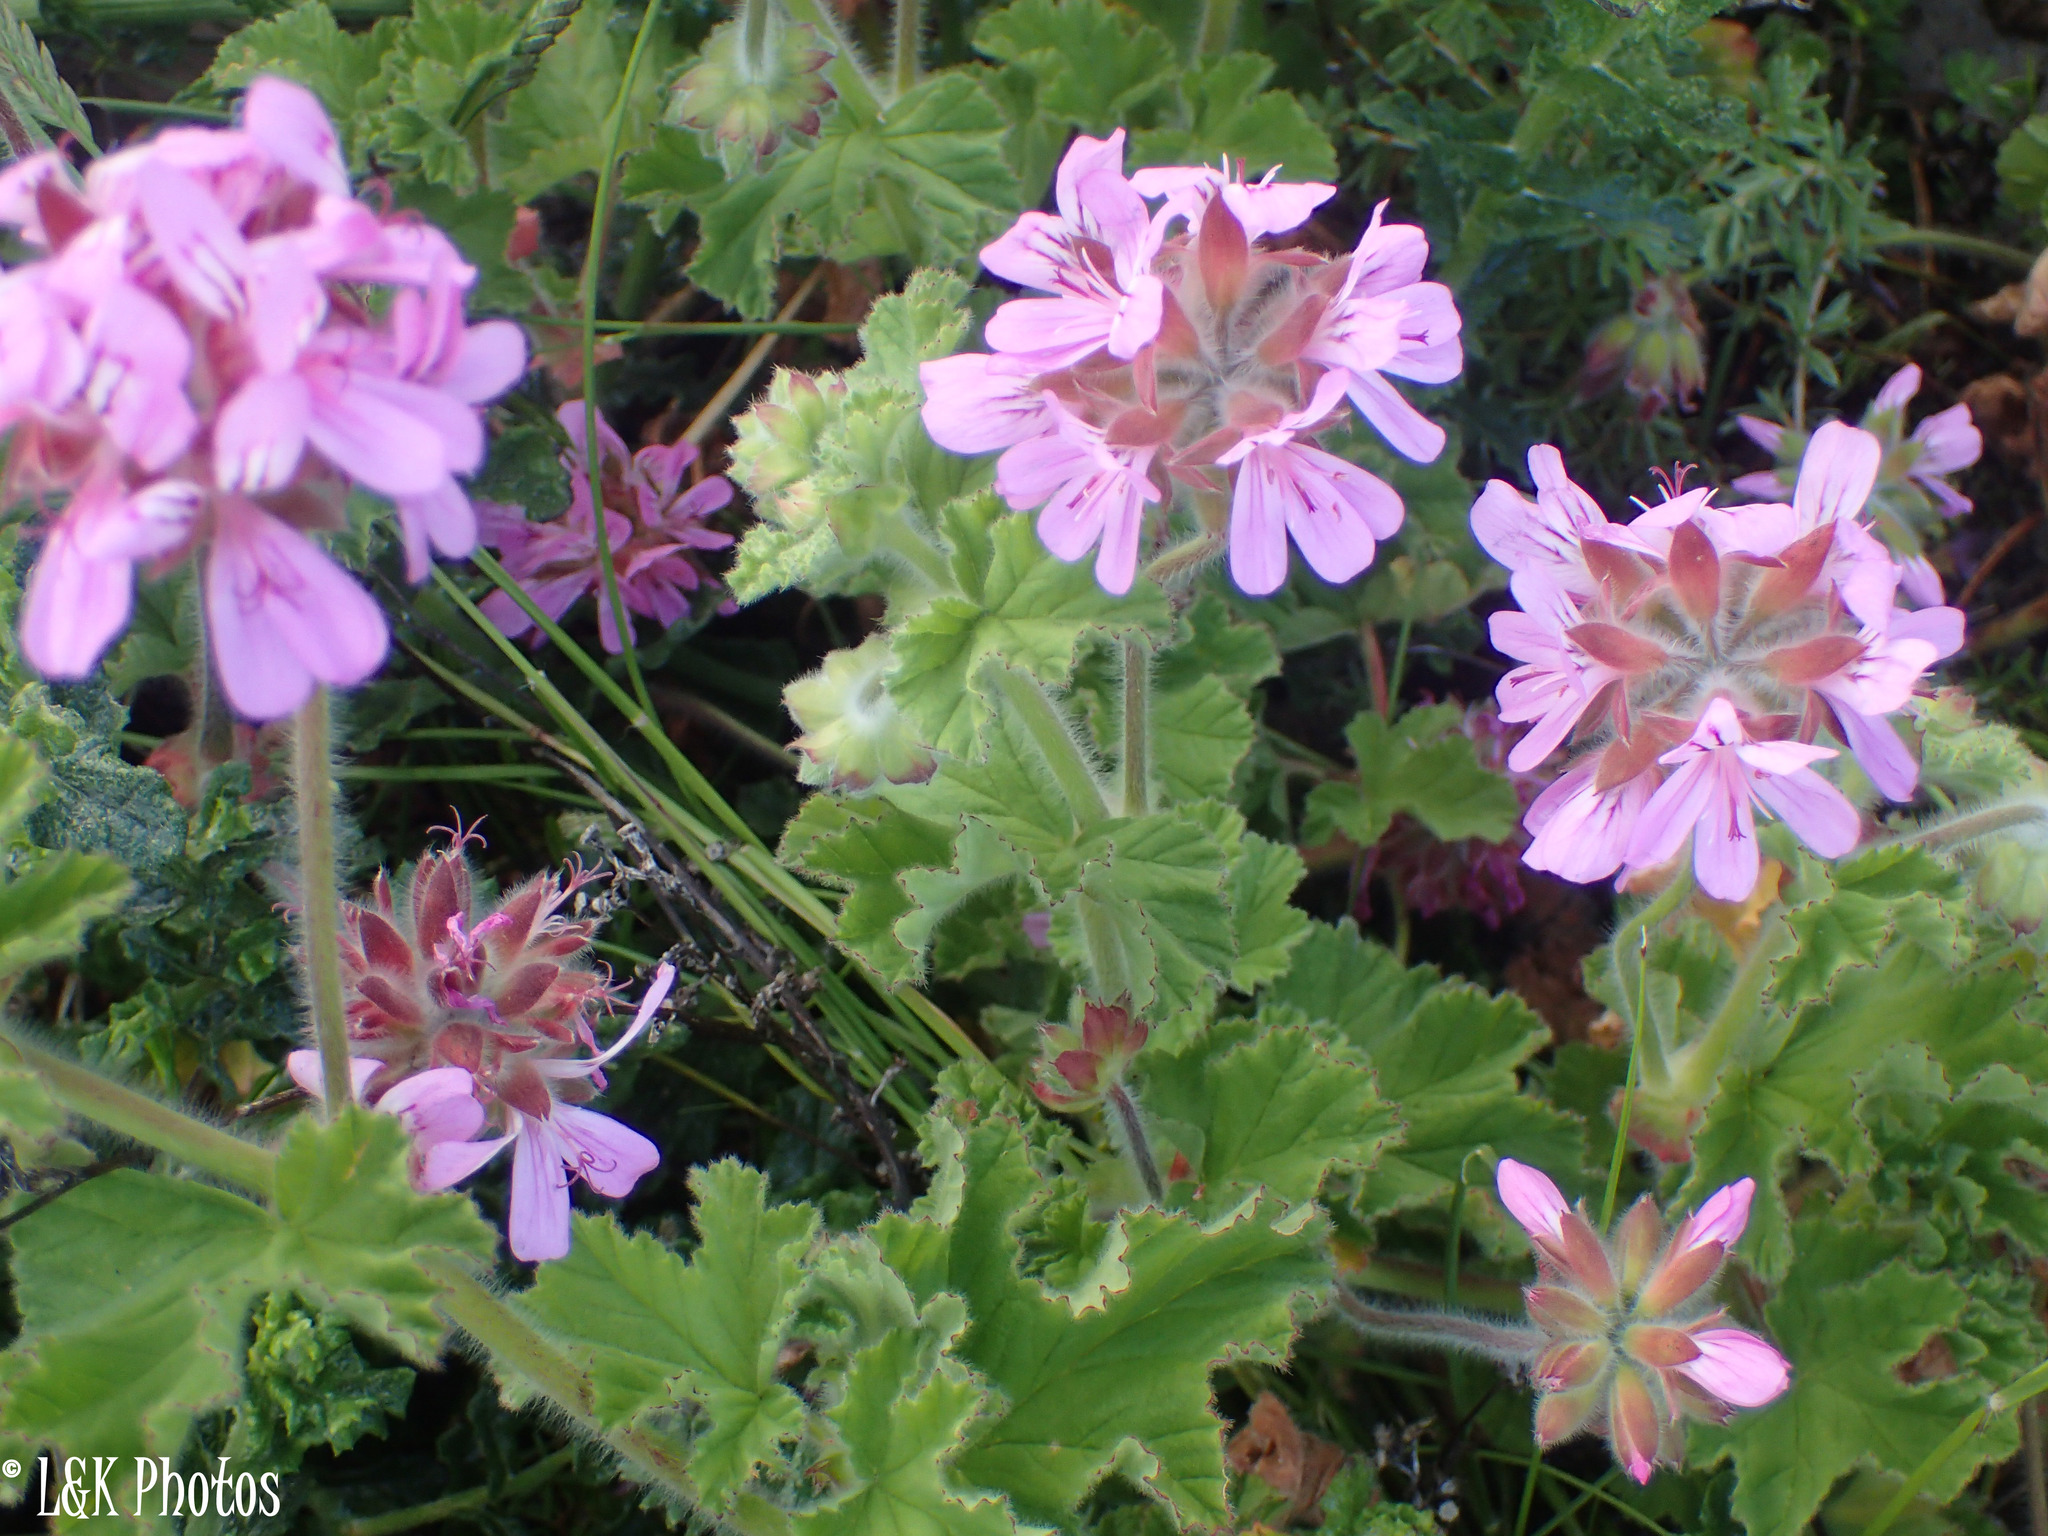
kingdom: Plantae
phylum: Tracheophyta
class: Magnoliopsida
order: Geraniales
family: Geraniaceae
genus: Pelargonium
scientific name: Pelargonium capitatum
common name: Rose scented geranium
